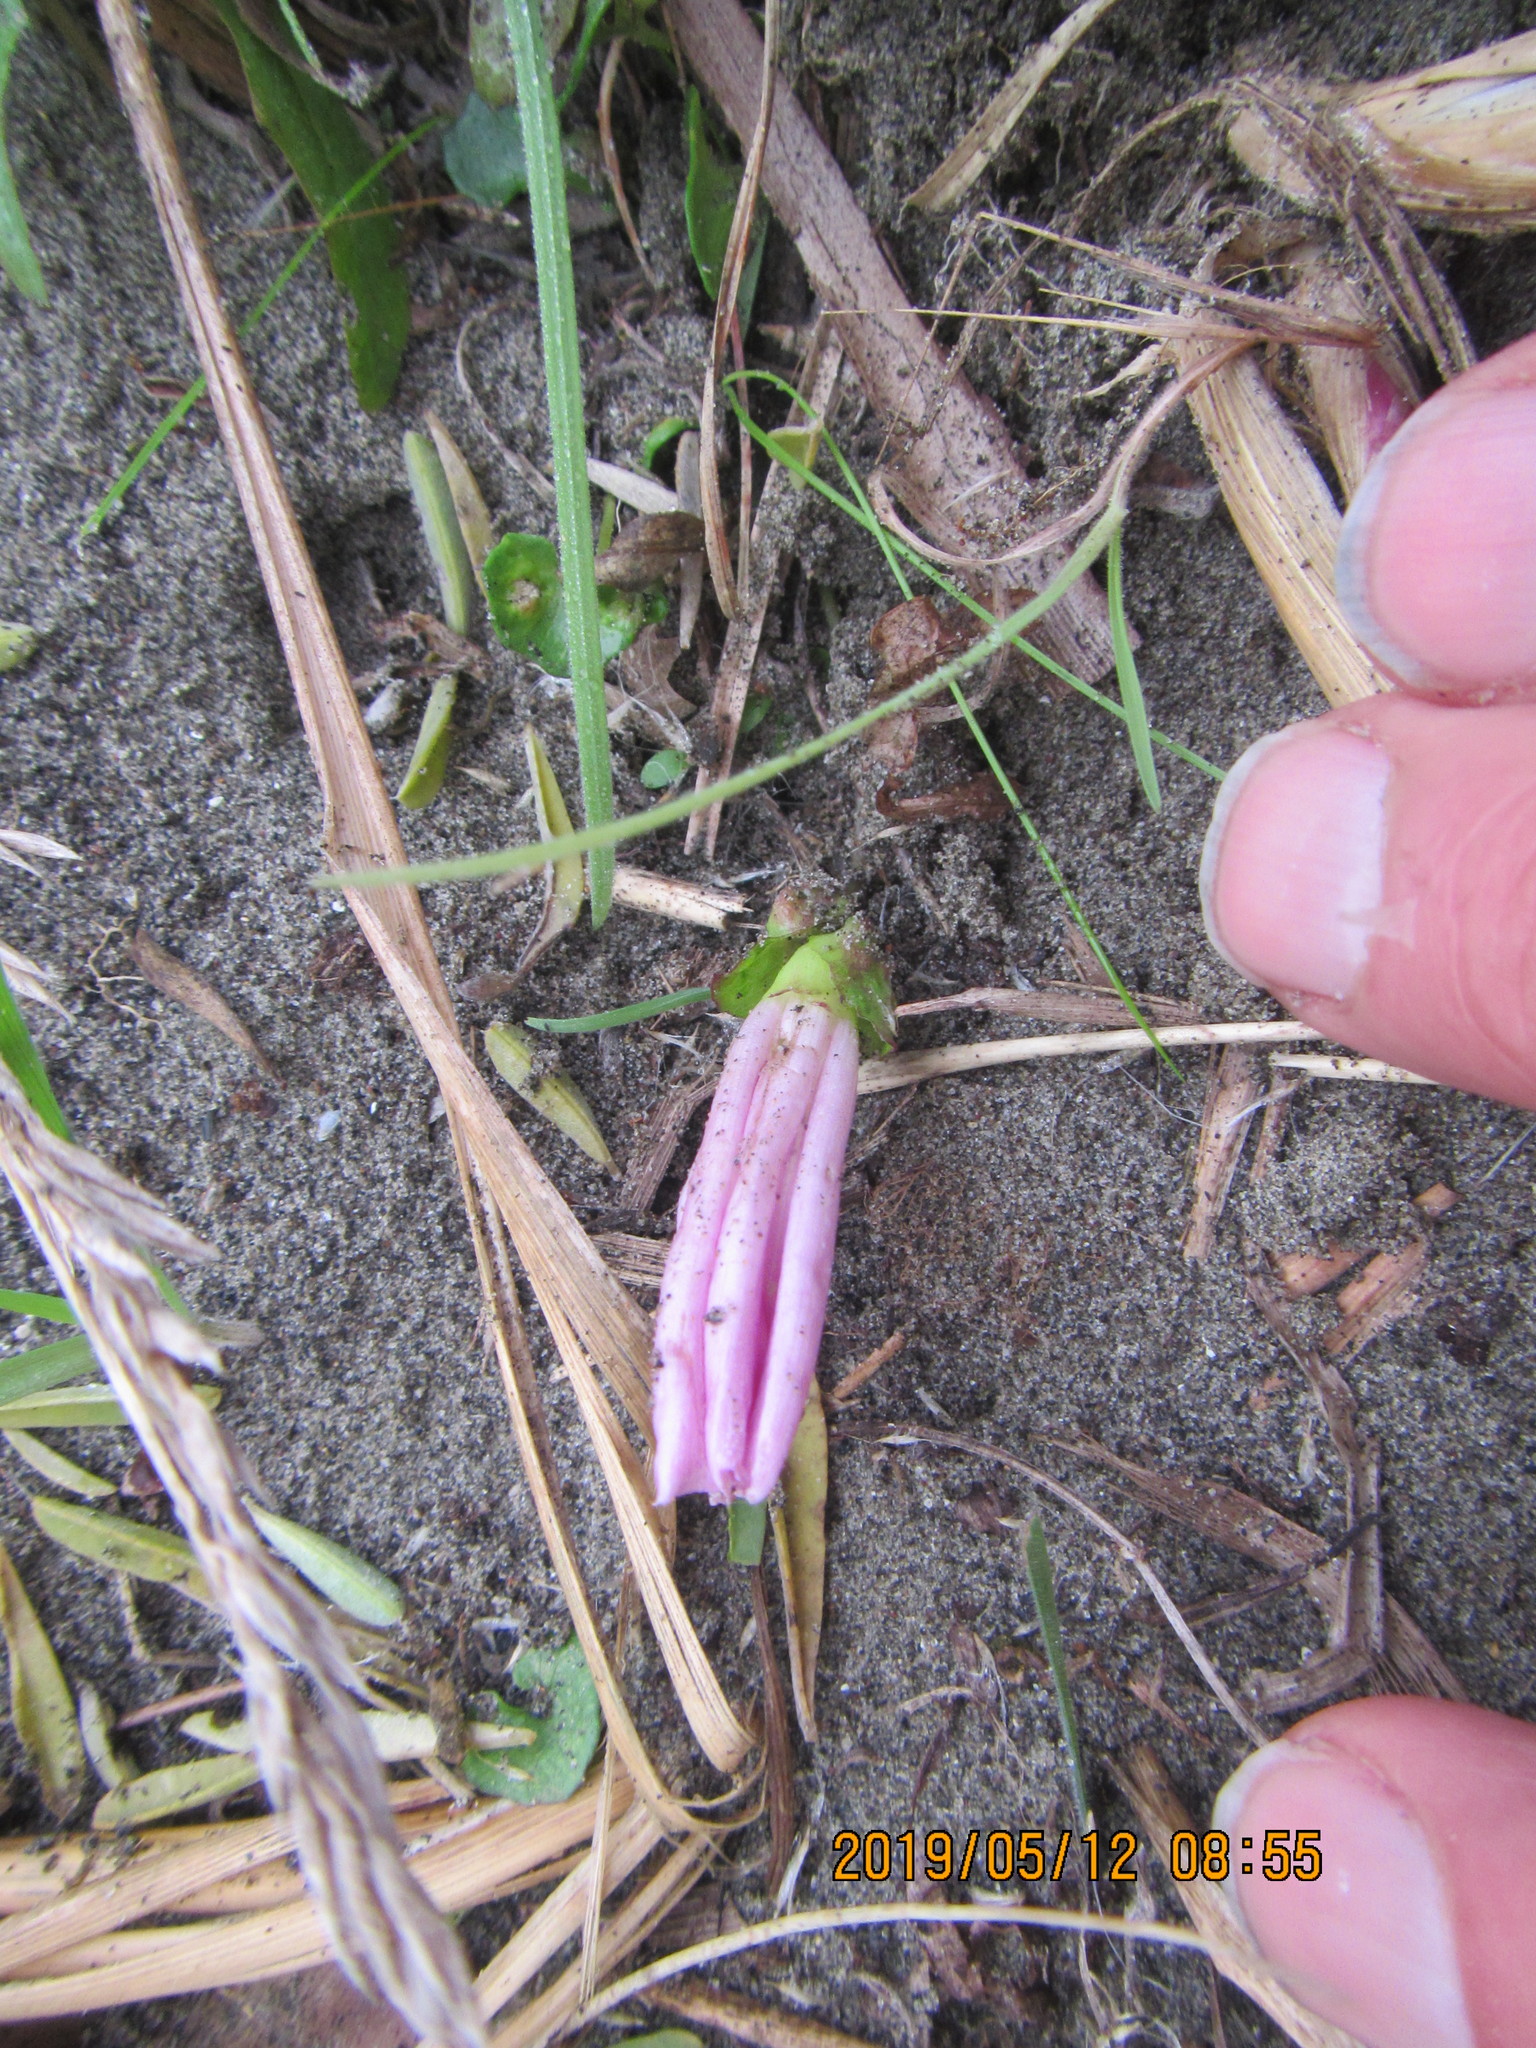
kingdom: Plantae
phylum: Tracheophyta
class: Magnoliopsida
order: Solanales
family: Convolvulaceae
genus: Calystegia
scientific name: Calystegia soldanella
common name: Sea bindweed
